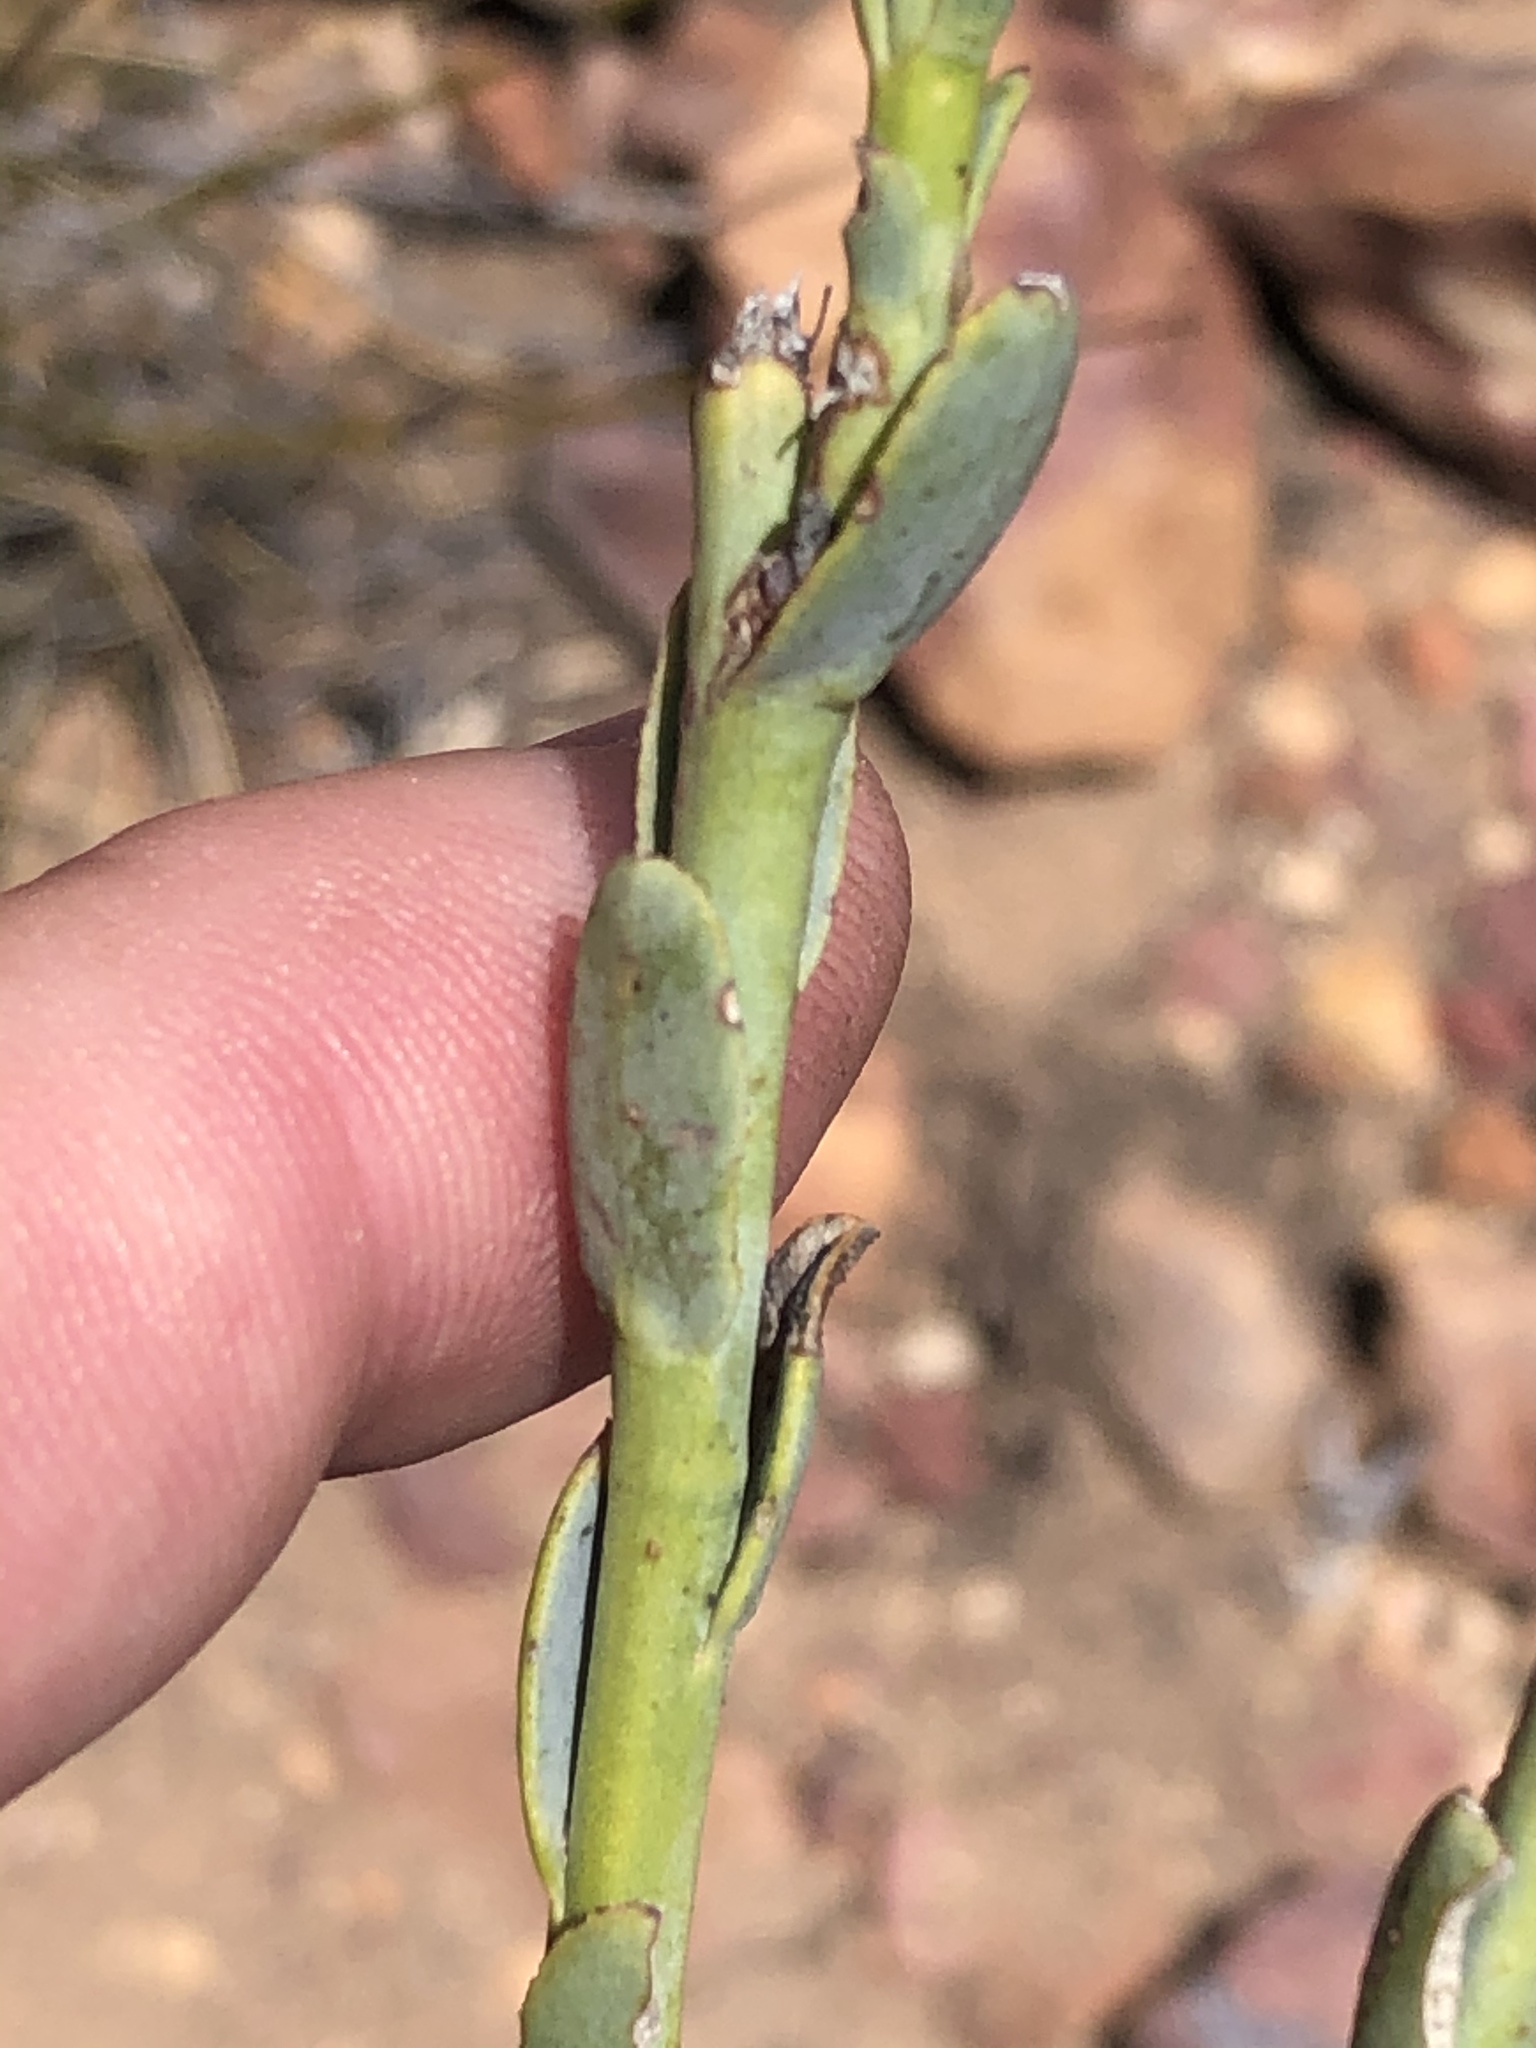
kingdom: Plantae
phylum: Tracheophyta
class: Magnoliopsida
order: Asterales
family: Asteraceae
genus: Osteospermum
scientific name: Osteospermum polygaloides
